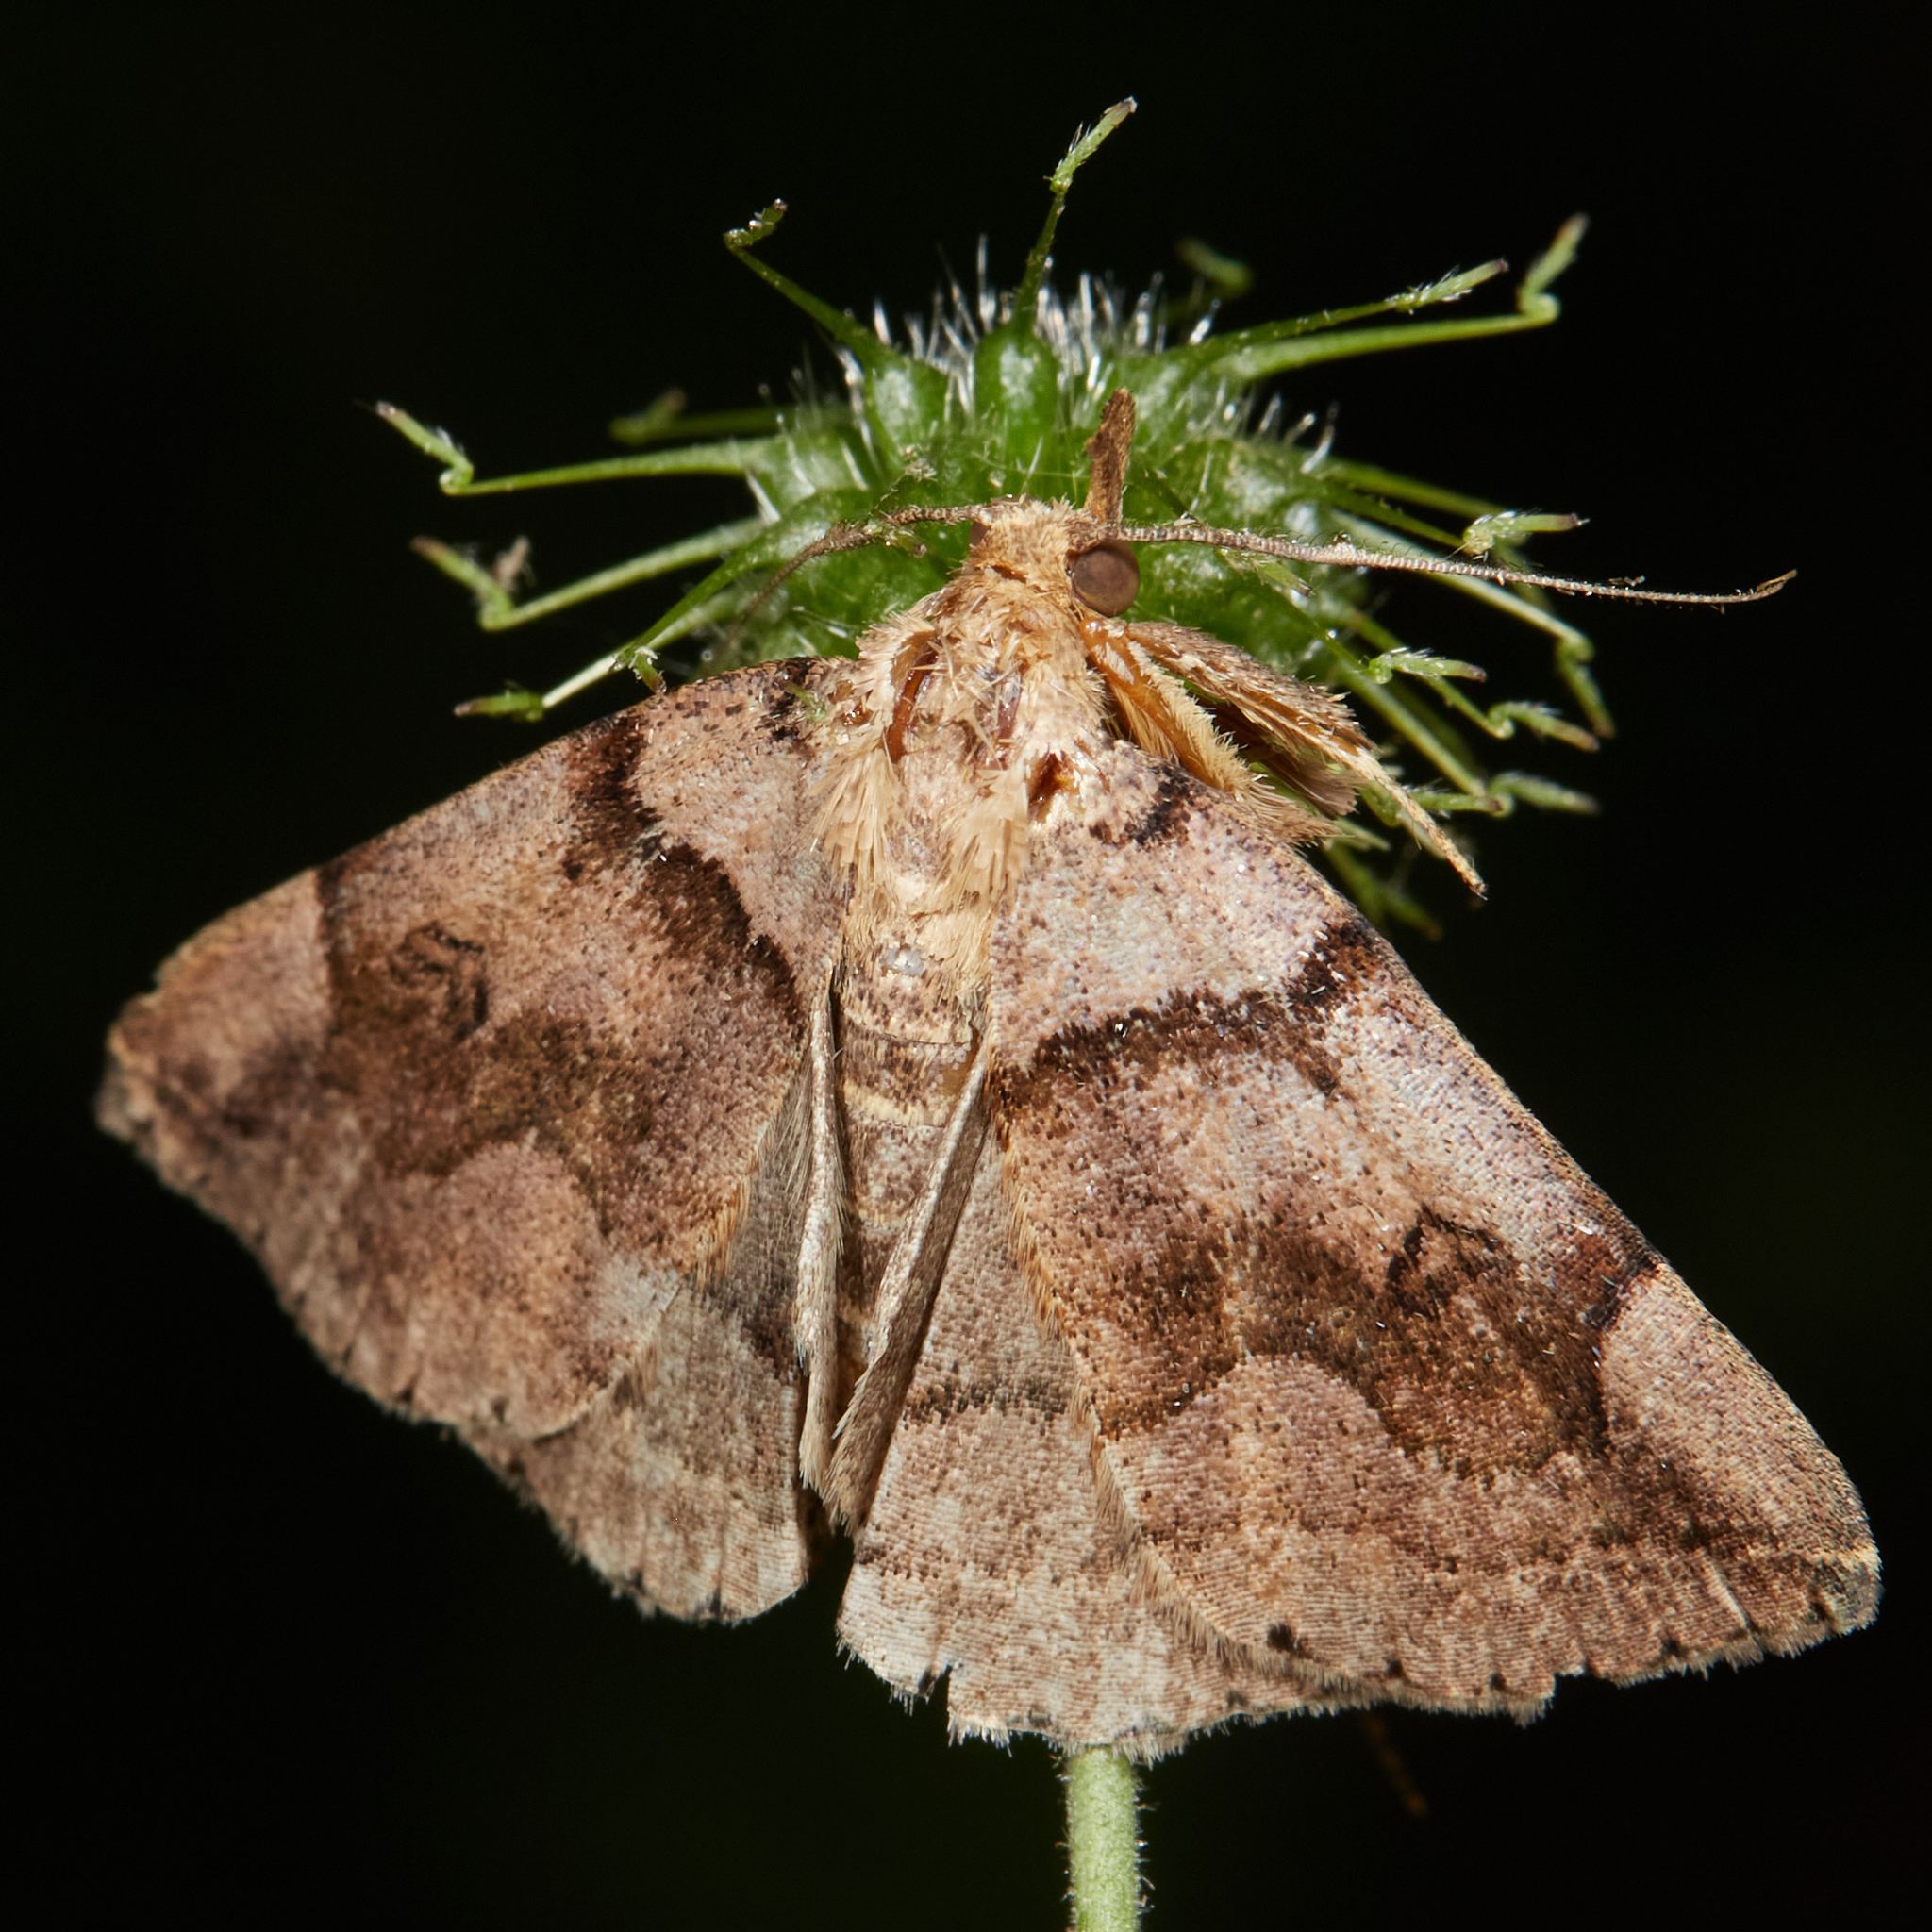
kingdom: Animalia
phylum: Arthropoda
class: Insecta
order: Lepidoptera
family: Erebidae
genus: Zanclognatha
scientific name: Zanclognatha laevigata
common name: Variable fan-foot
